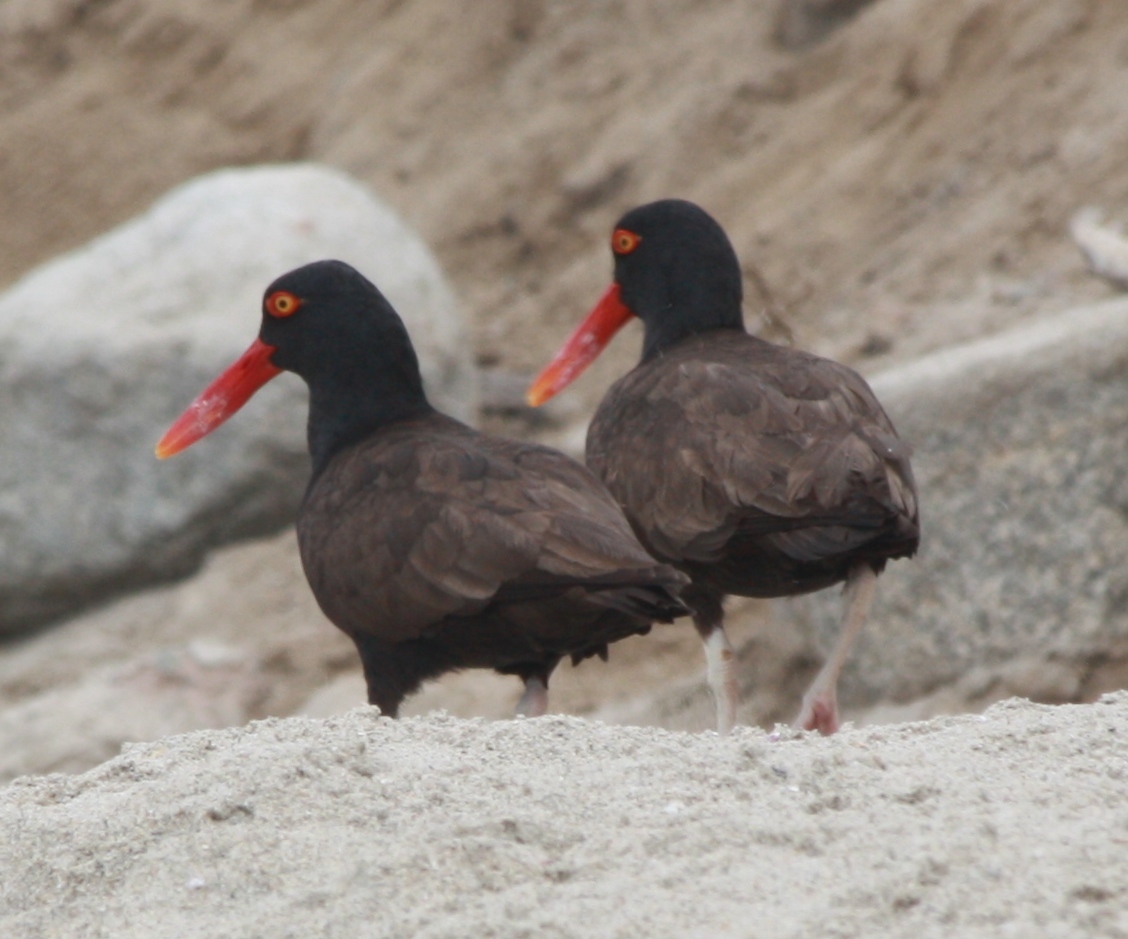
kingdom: Animalia
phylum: Chordata
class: Aves
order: Charadriiformes
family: Haematopodidae
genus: Haematopus
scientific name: Haematopus ater
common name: Blackish oystercatcher
